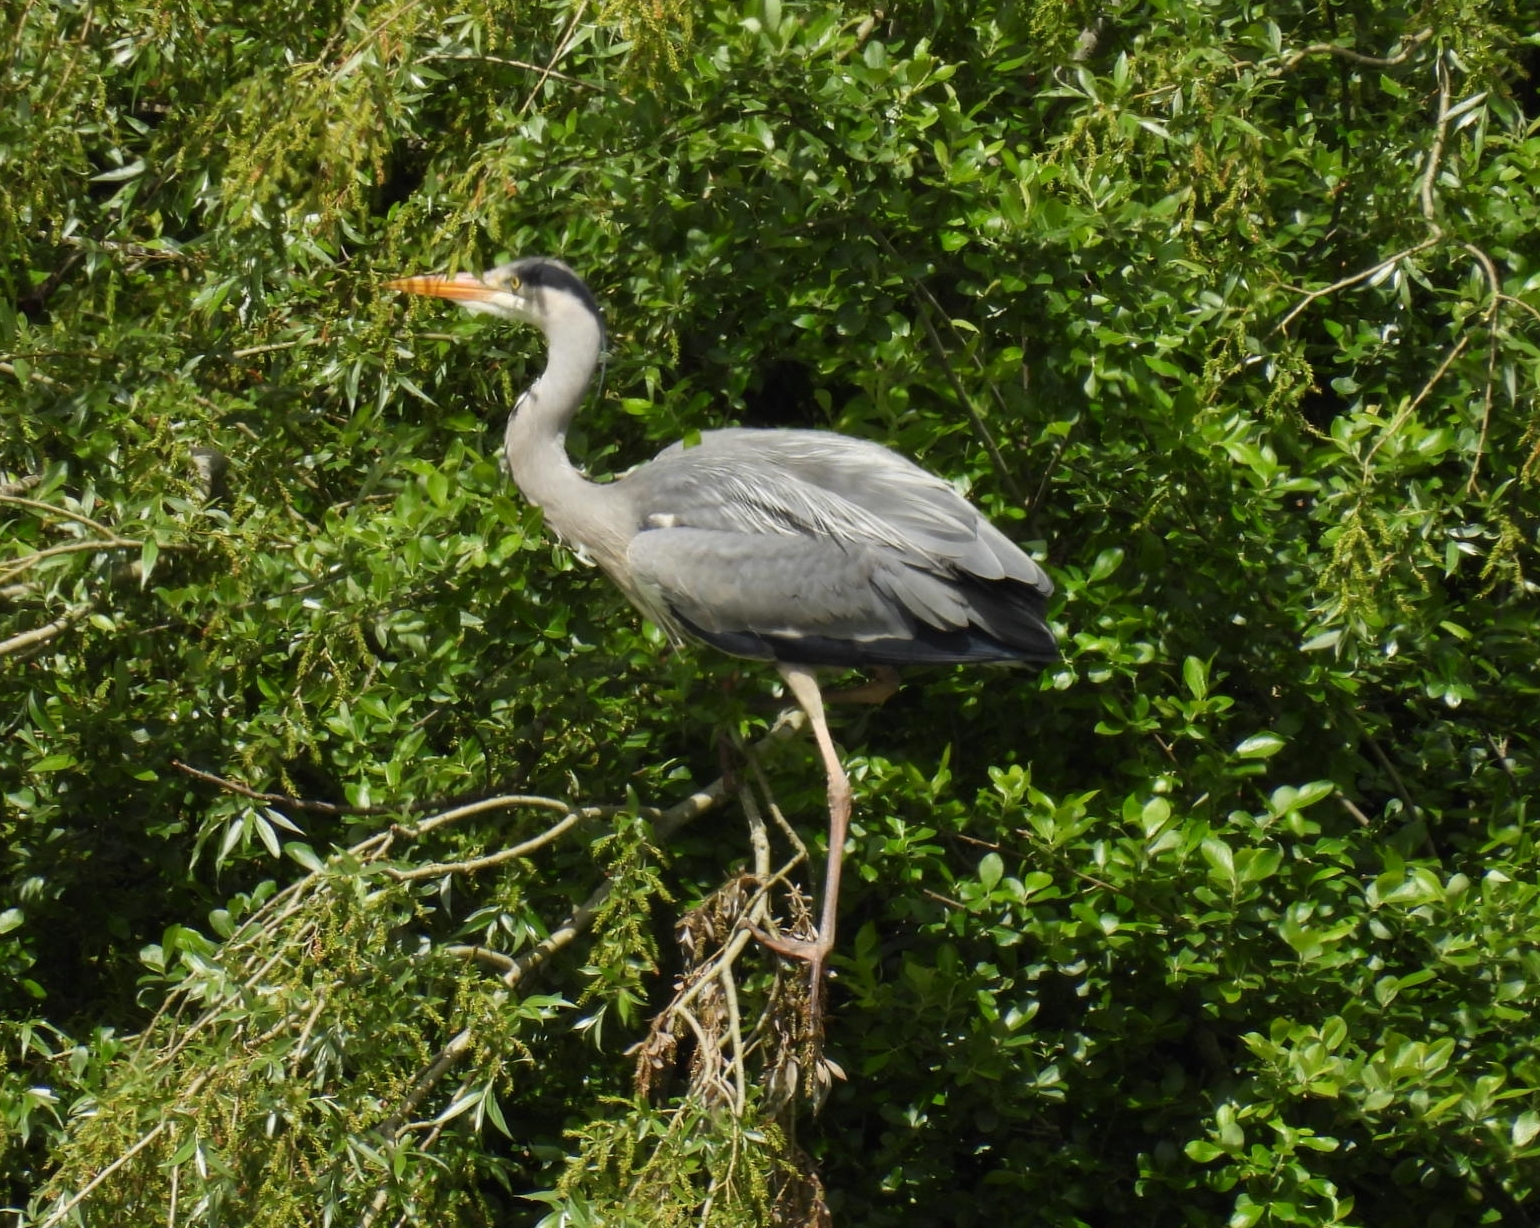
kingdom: Animalia
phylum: Chordata
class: Aves
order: Pelecaniformes
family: Ardeidae
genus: Ardea
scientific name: Ardea cinerea
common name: Grey heron
